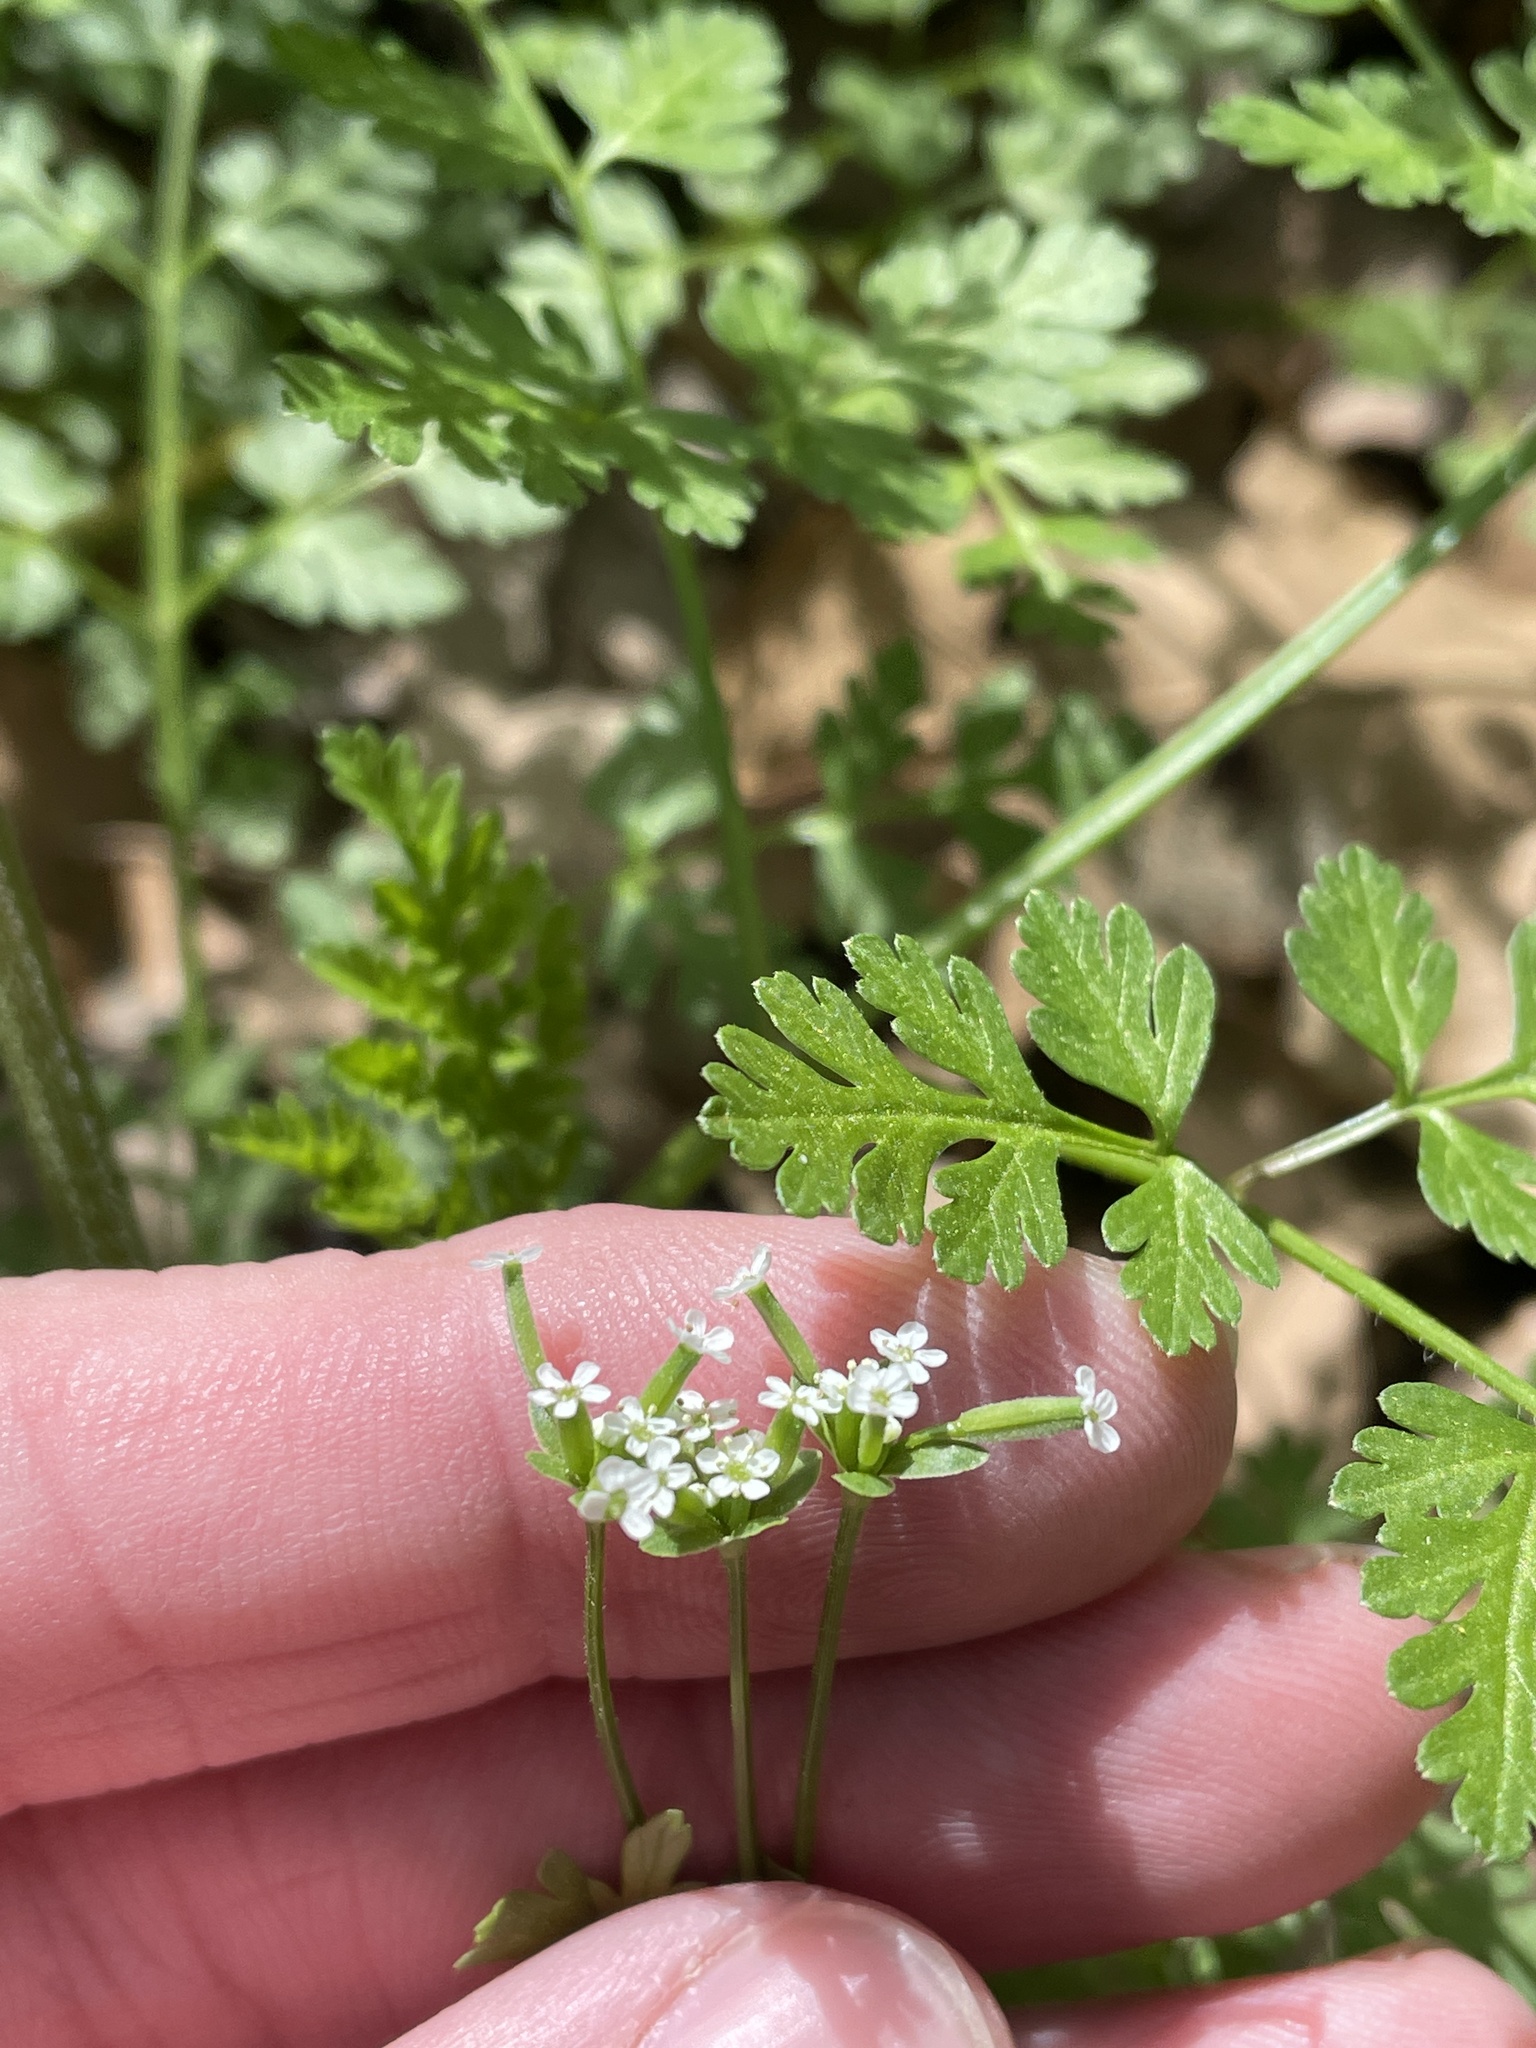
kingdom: Plantae
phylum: Tracheophyta
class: Magnoliopsida
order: Apiales
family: Apiaceae
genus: Chaerophyllum
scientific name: Chaerophyllum tainturieri
